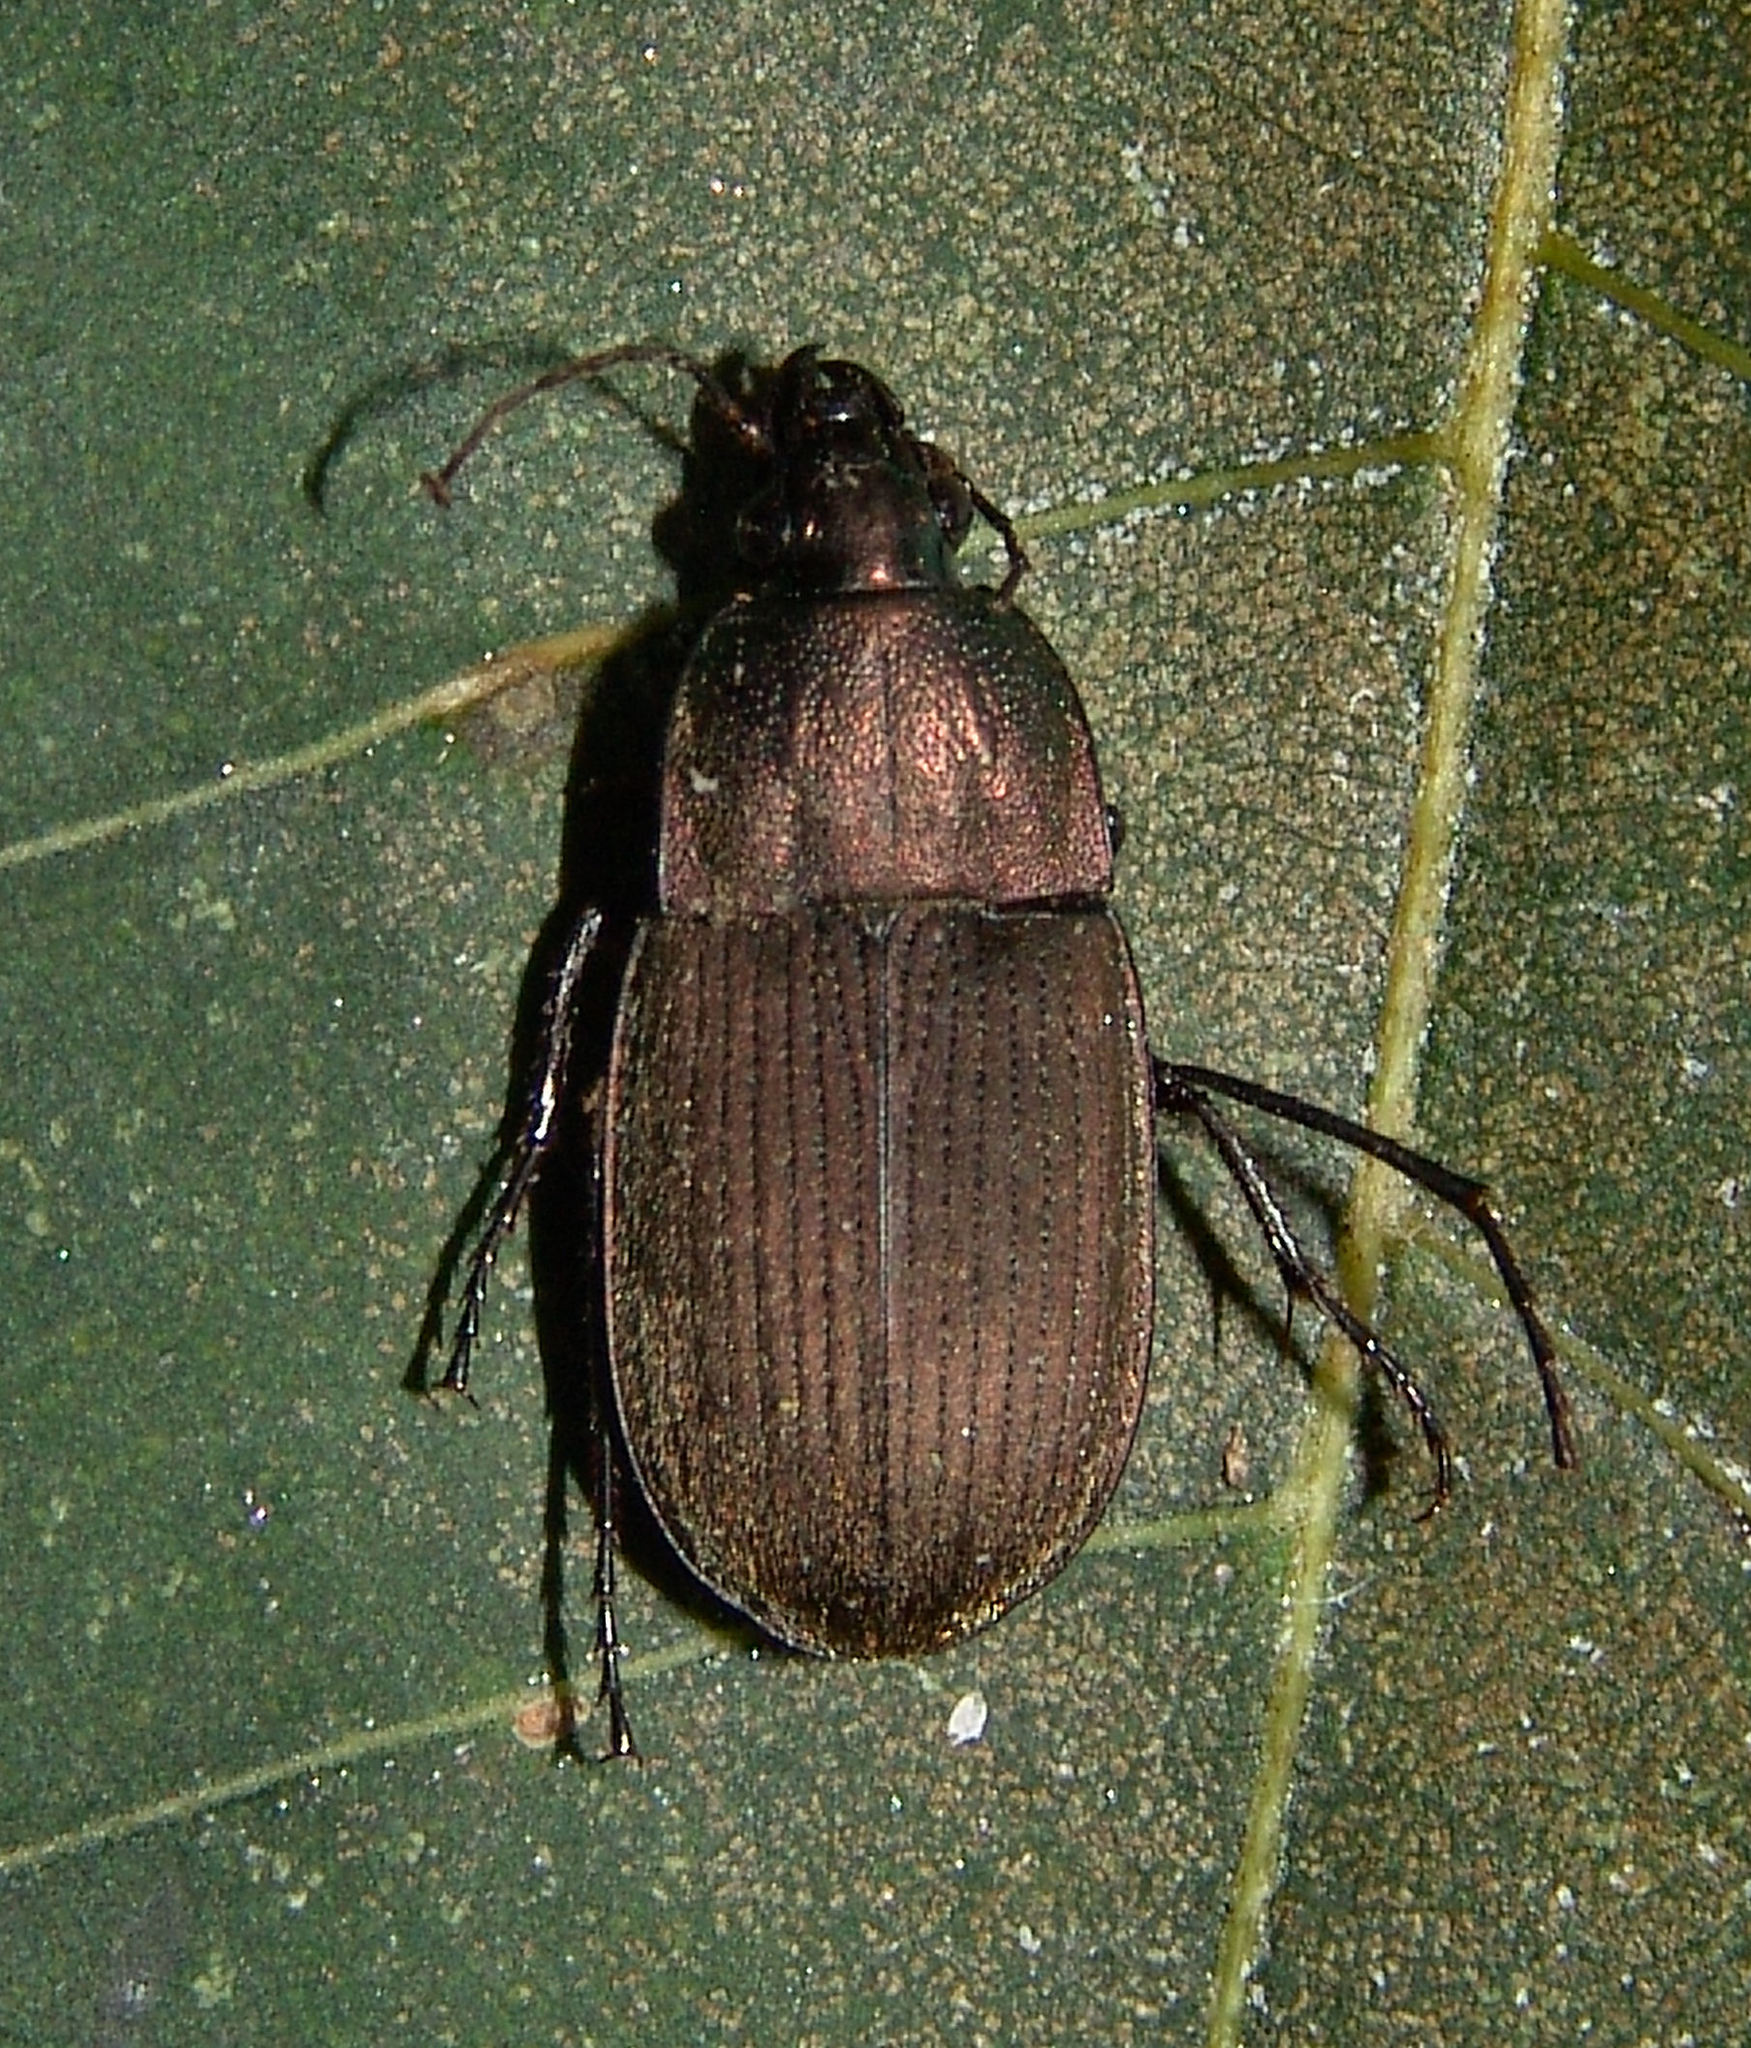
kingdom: Animalia
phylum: Arthropoda
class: Insecta
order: Coleoptera
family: Carabidae
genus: Chlaenius
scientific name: Chlaenius tomentosus
